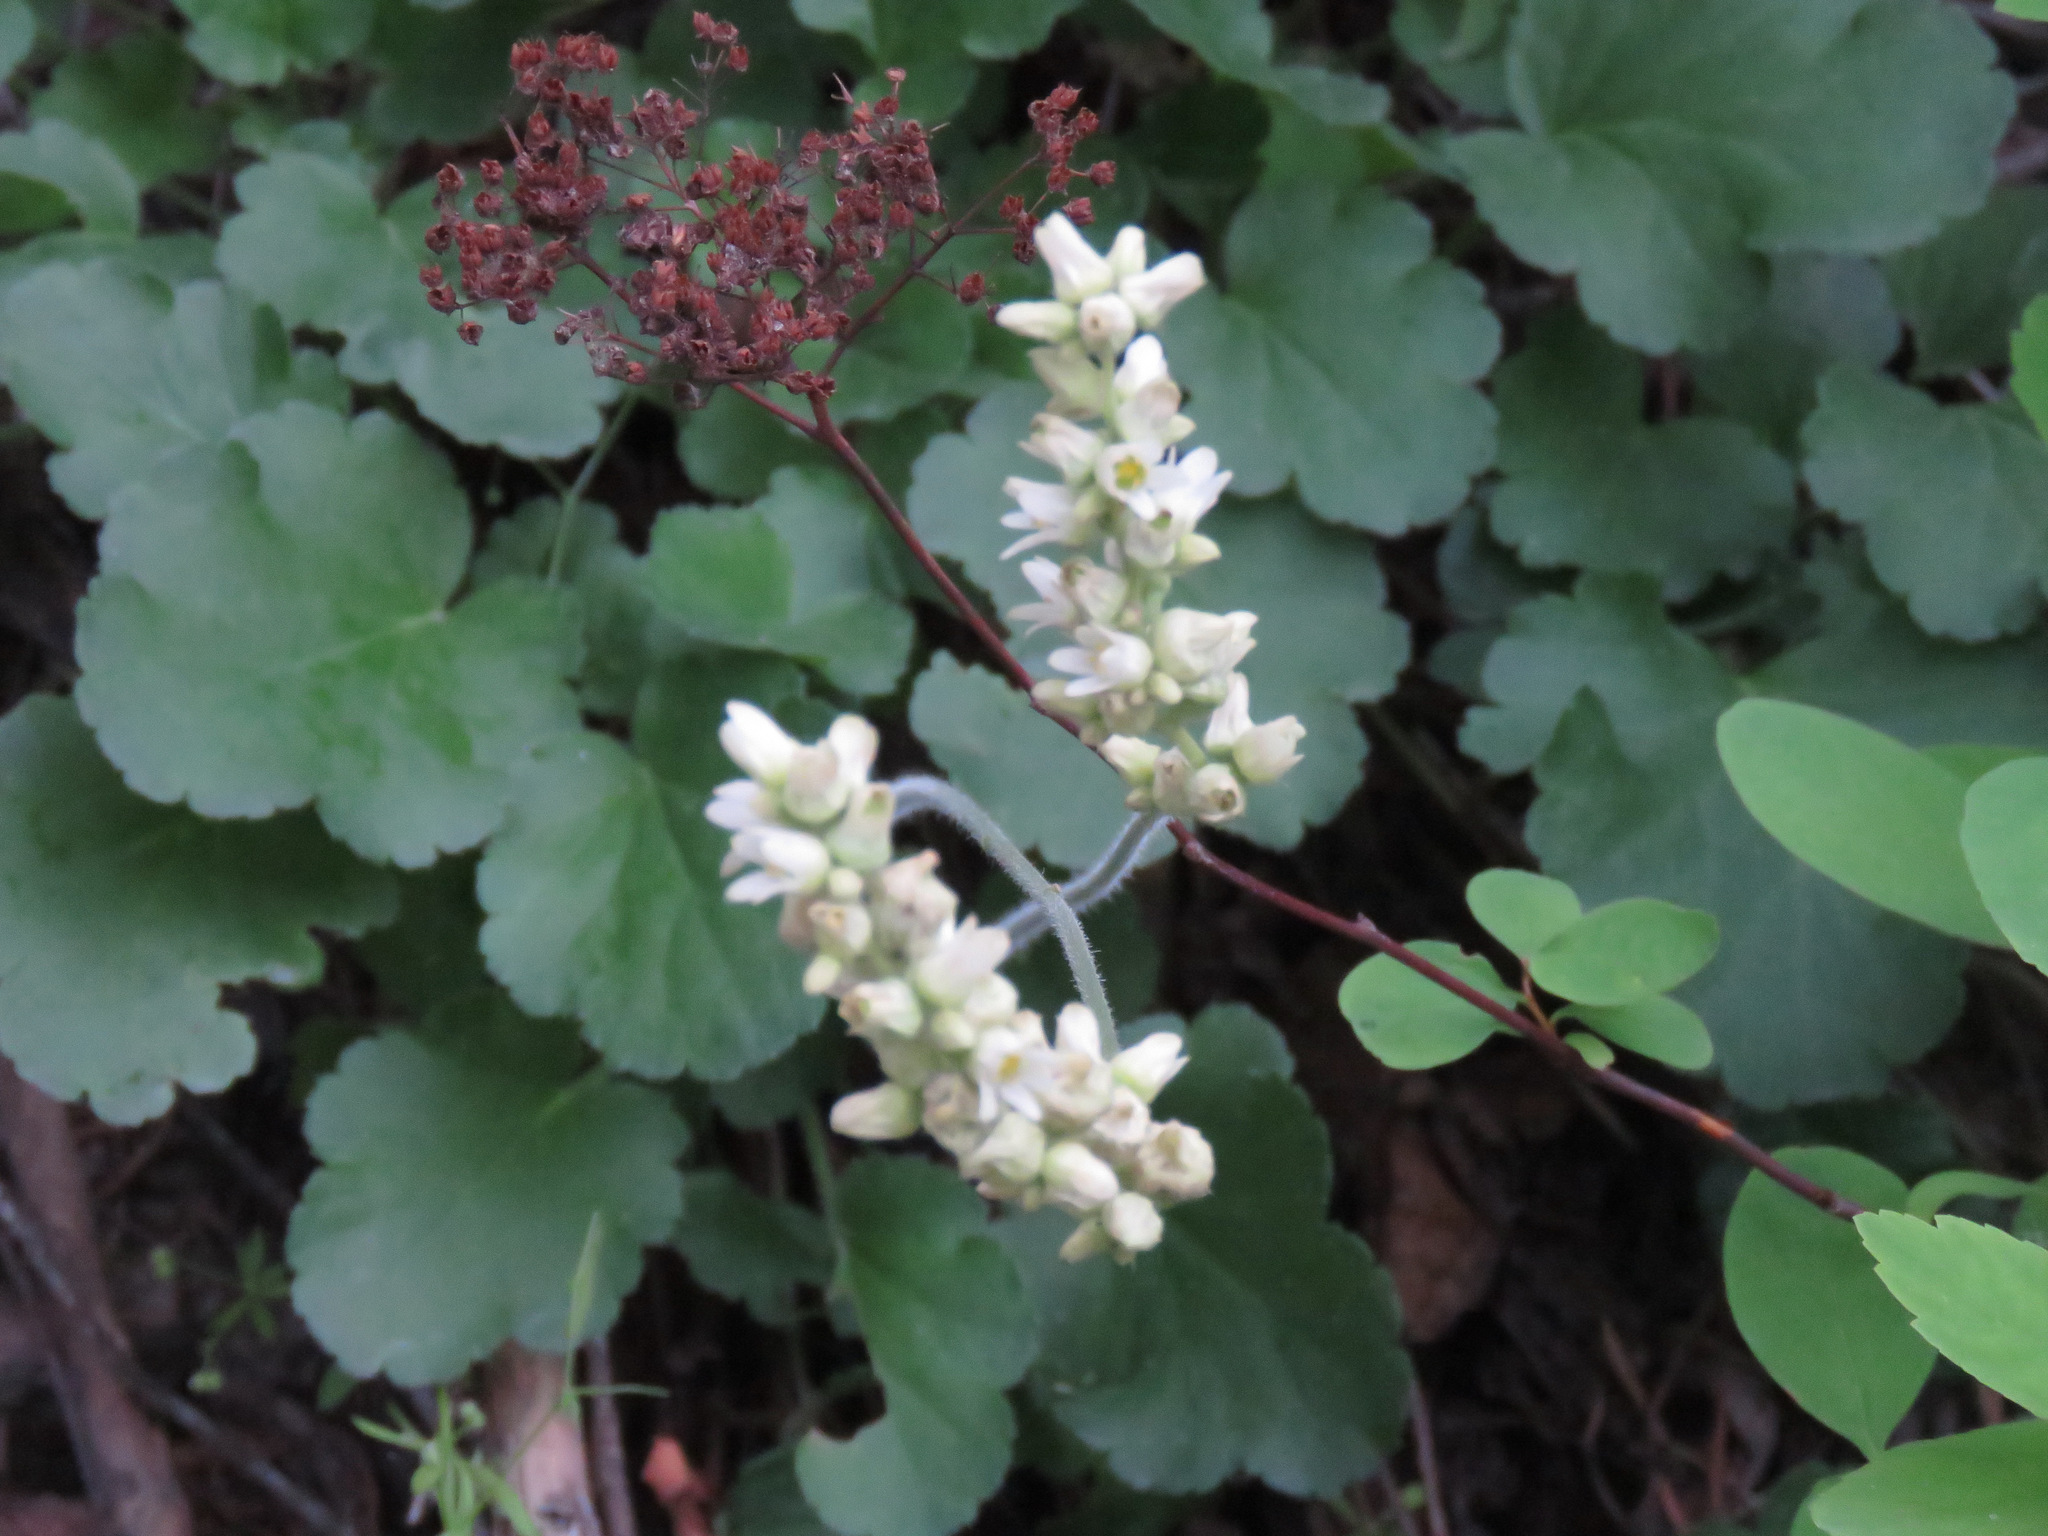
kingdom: Plantae
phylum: Tracheophyta
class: Magnoliopsida
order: Saxifragales
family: Saxifragaceae
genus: Heuchera
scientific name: Heuchera cylindrica
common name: Mat alumroot
